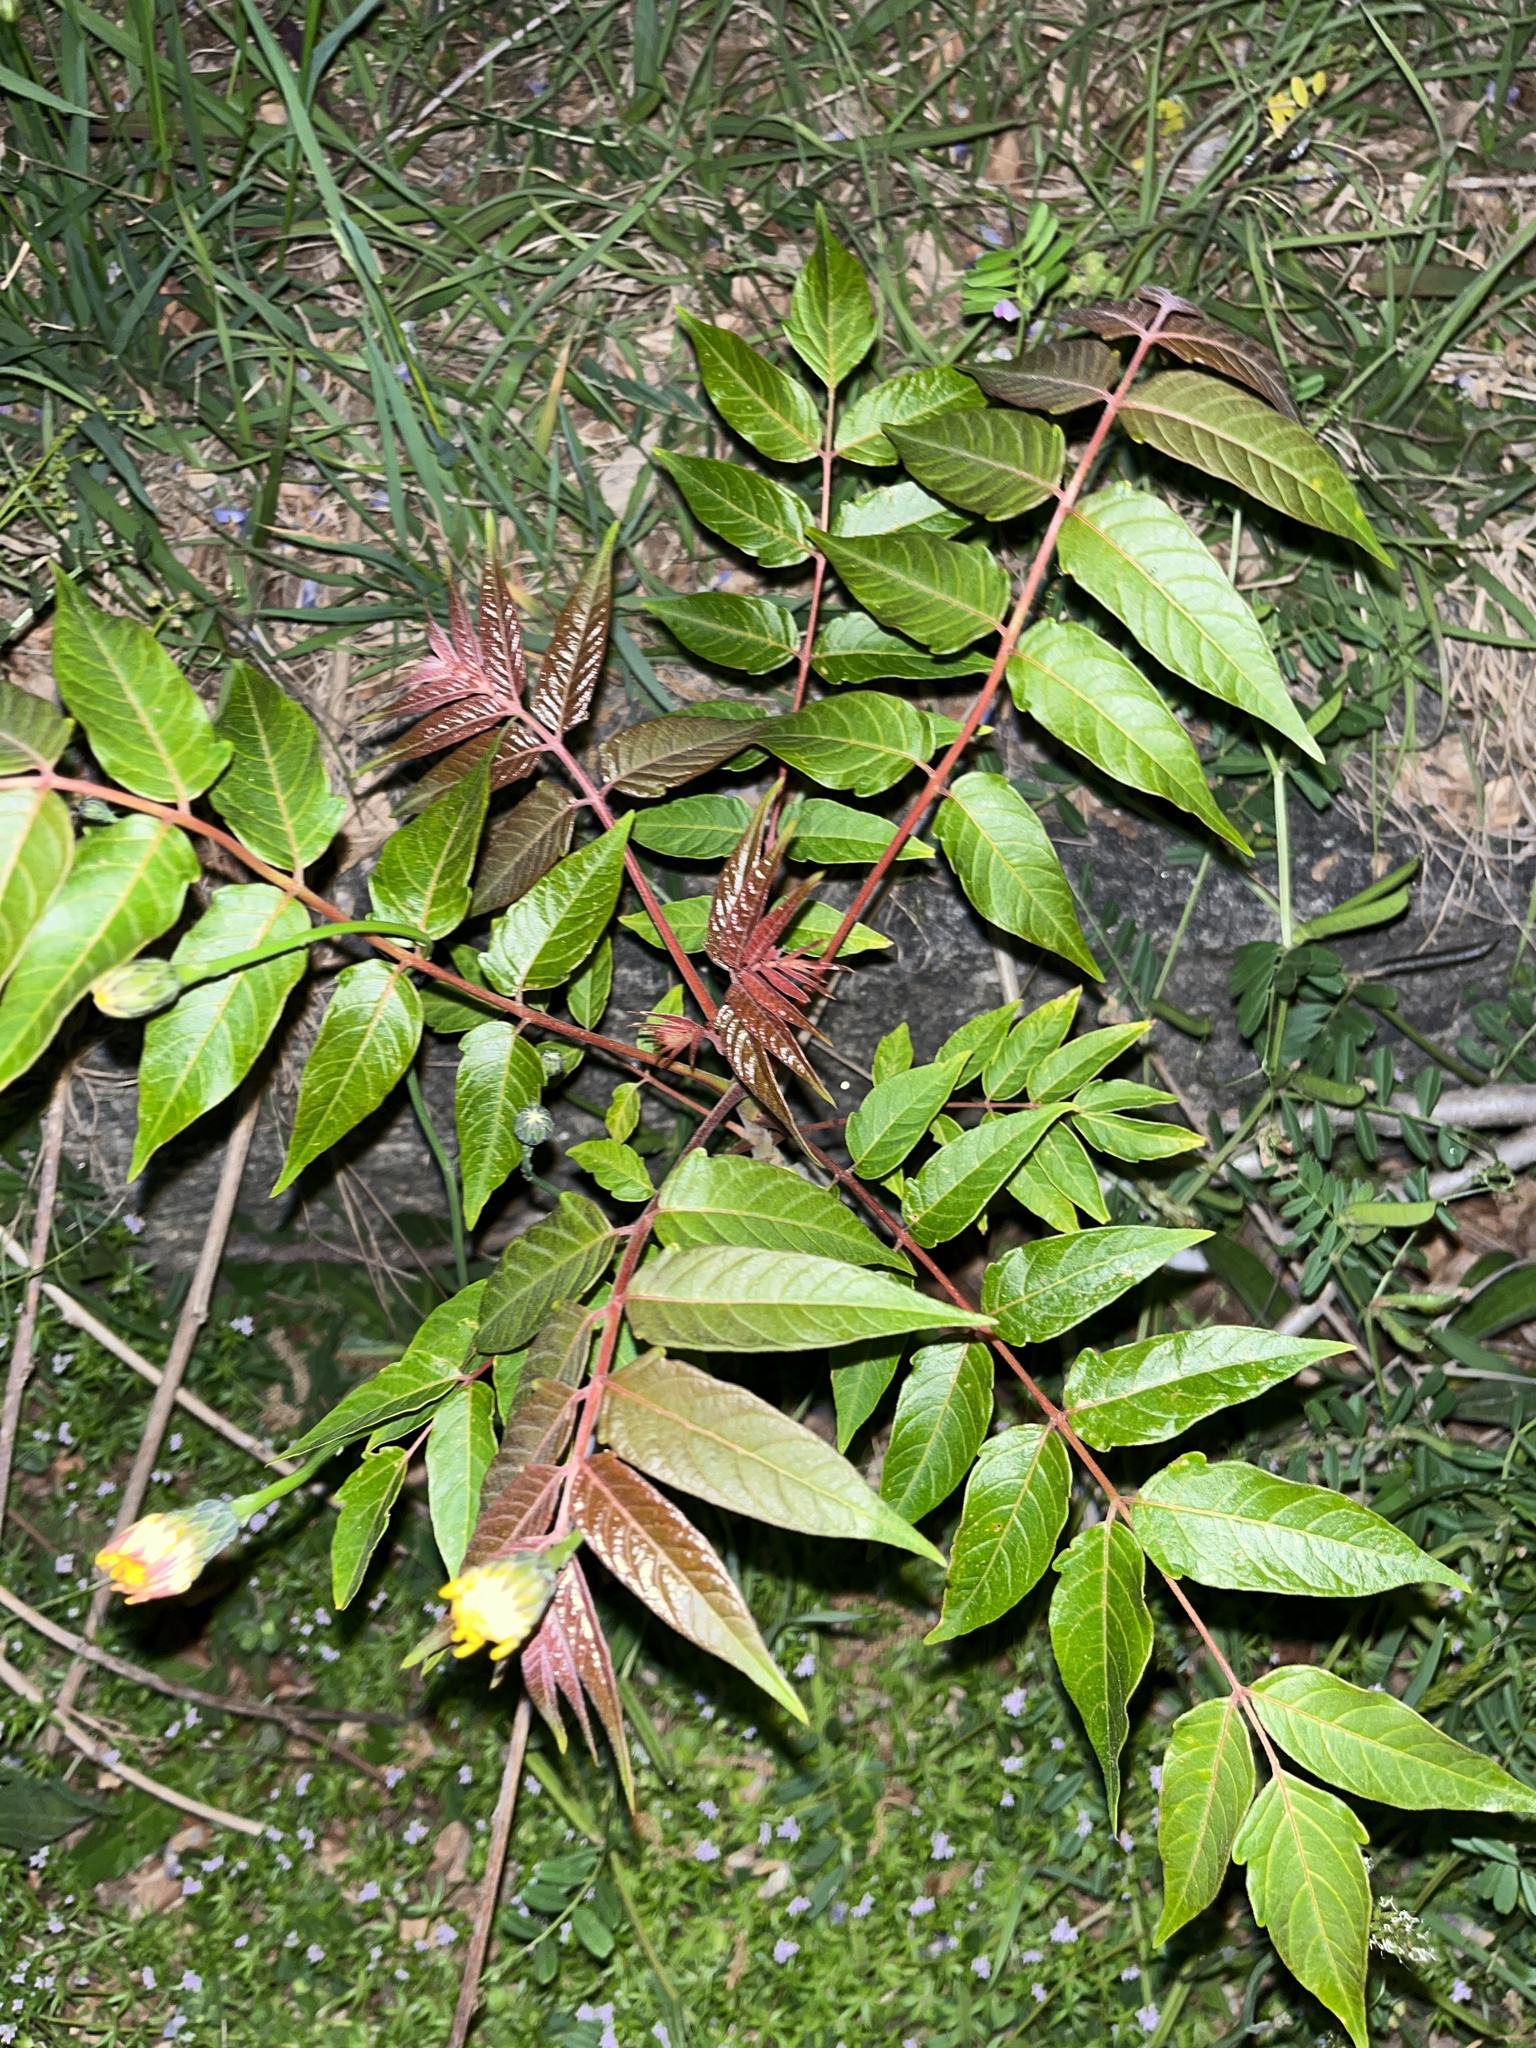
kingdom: Plantae
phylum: Tracheophyta
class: Magnoliopsida
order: Sapindales
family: Simaroubaceae
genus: Ailanthus
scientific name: Ailanthus altissima
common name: Tree-of-heaven
